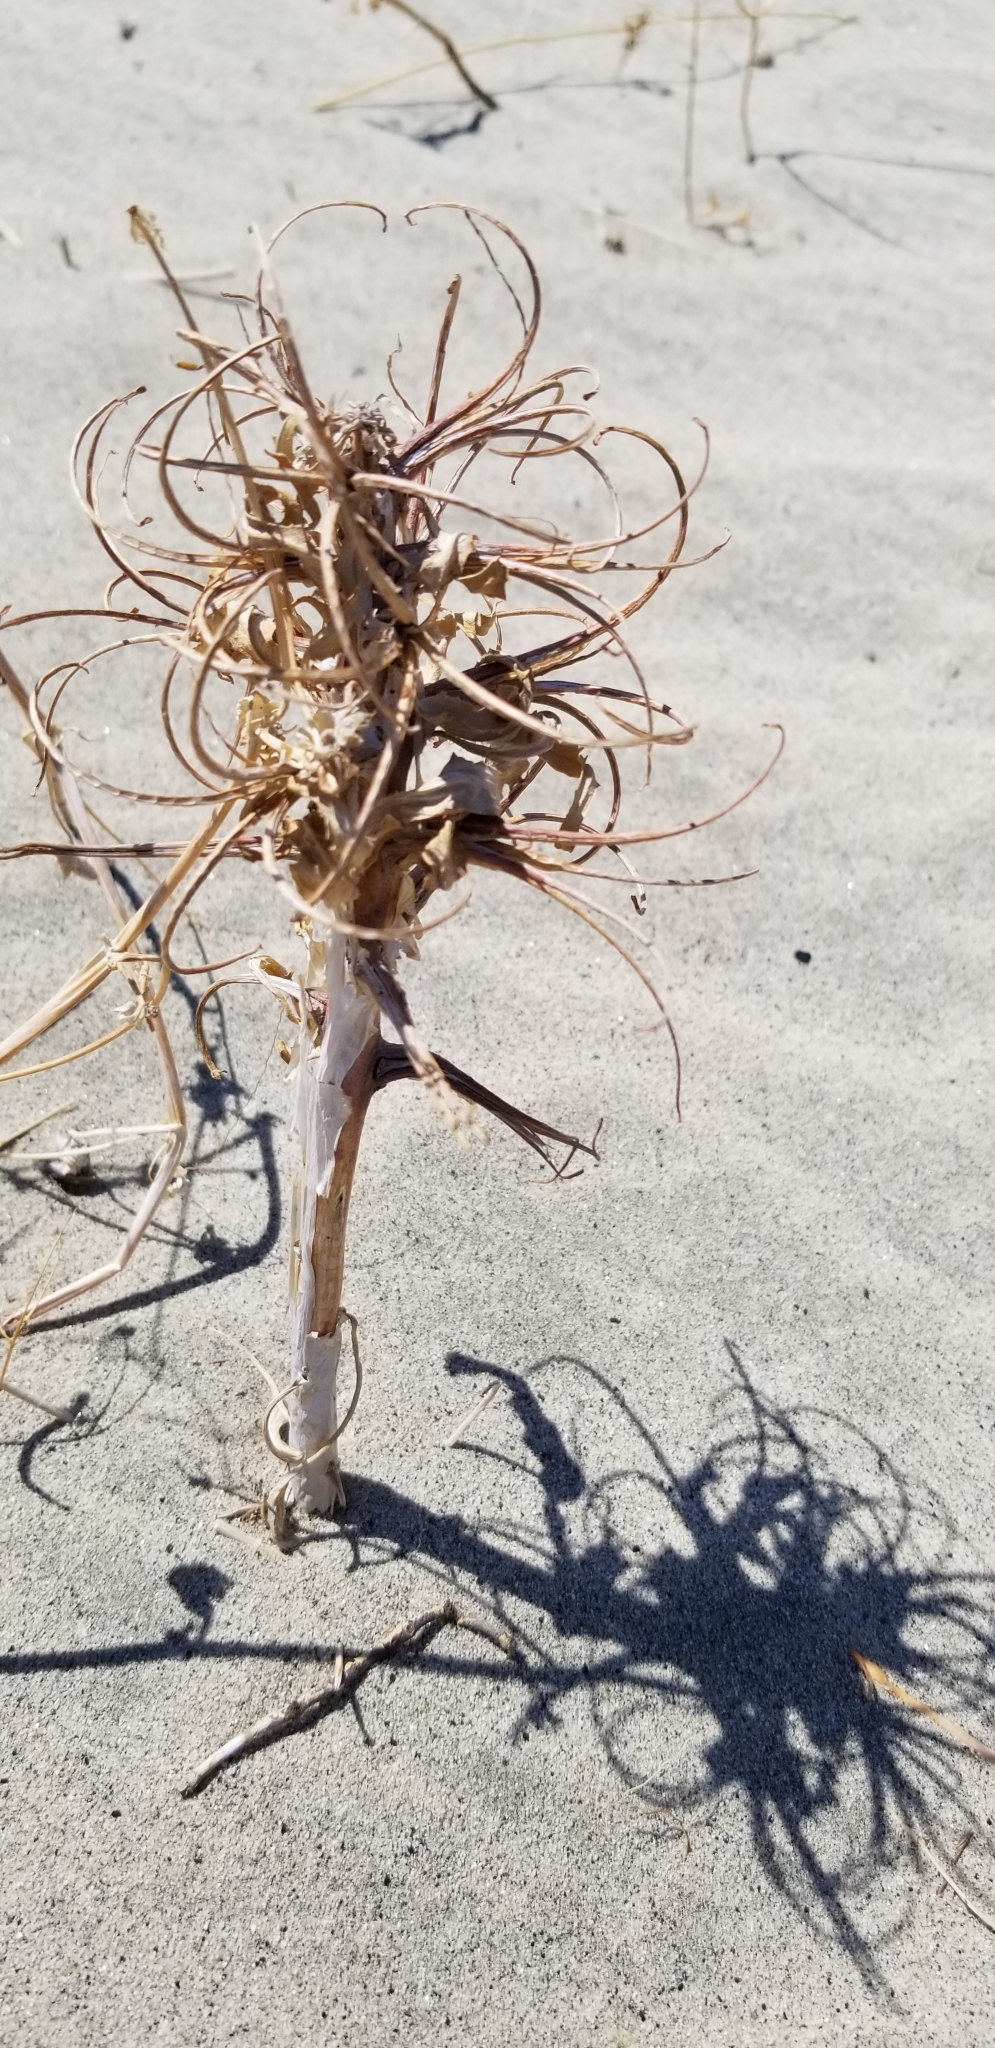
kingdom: Plantae
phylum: Tracheophyta
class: Magnoliopsida
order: Myrtales
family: Onagraceae
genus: Oenothera
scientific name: Oenothera deltoides
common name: Basket evening-primrose
